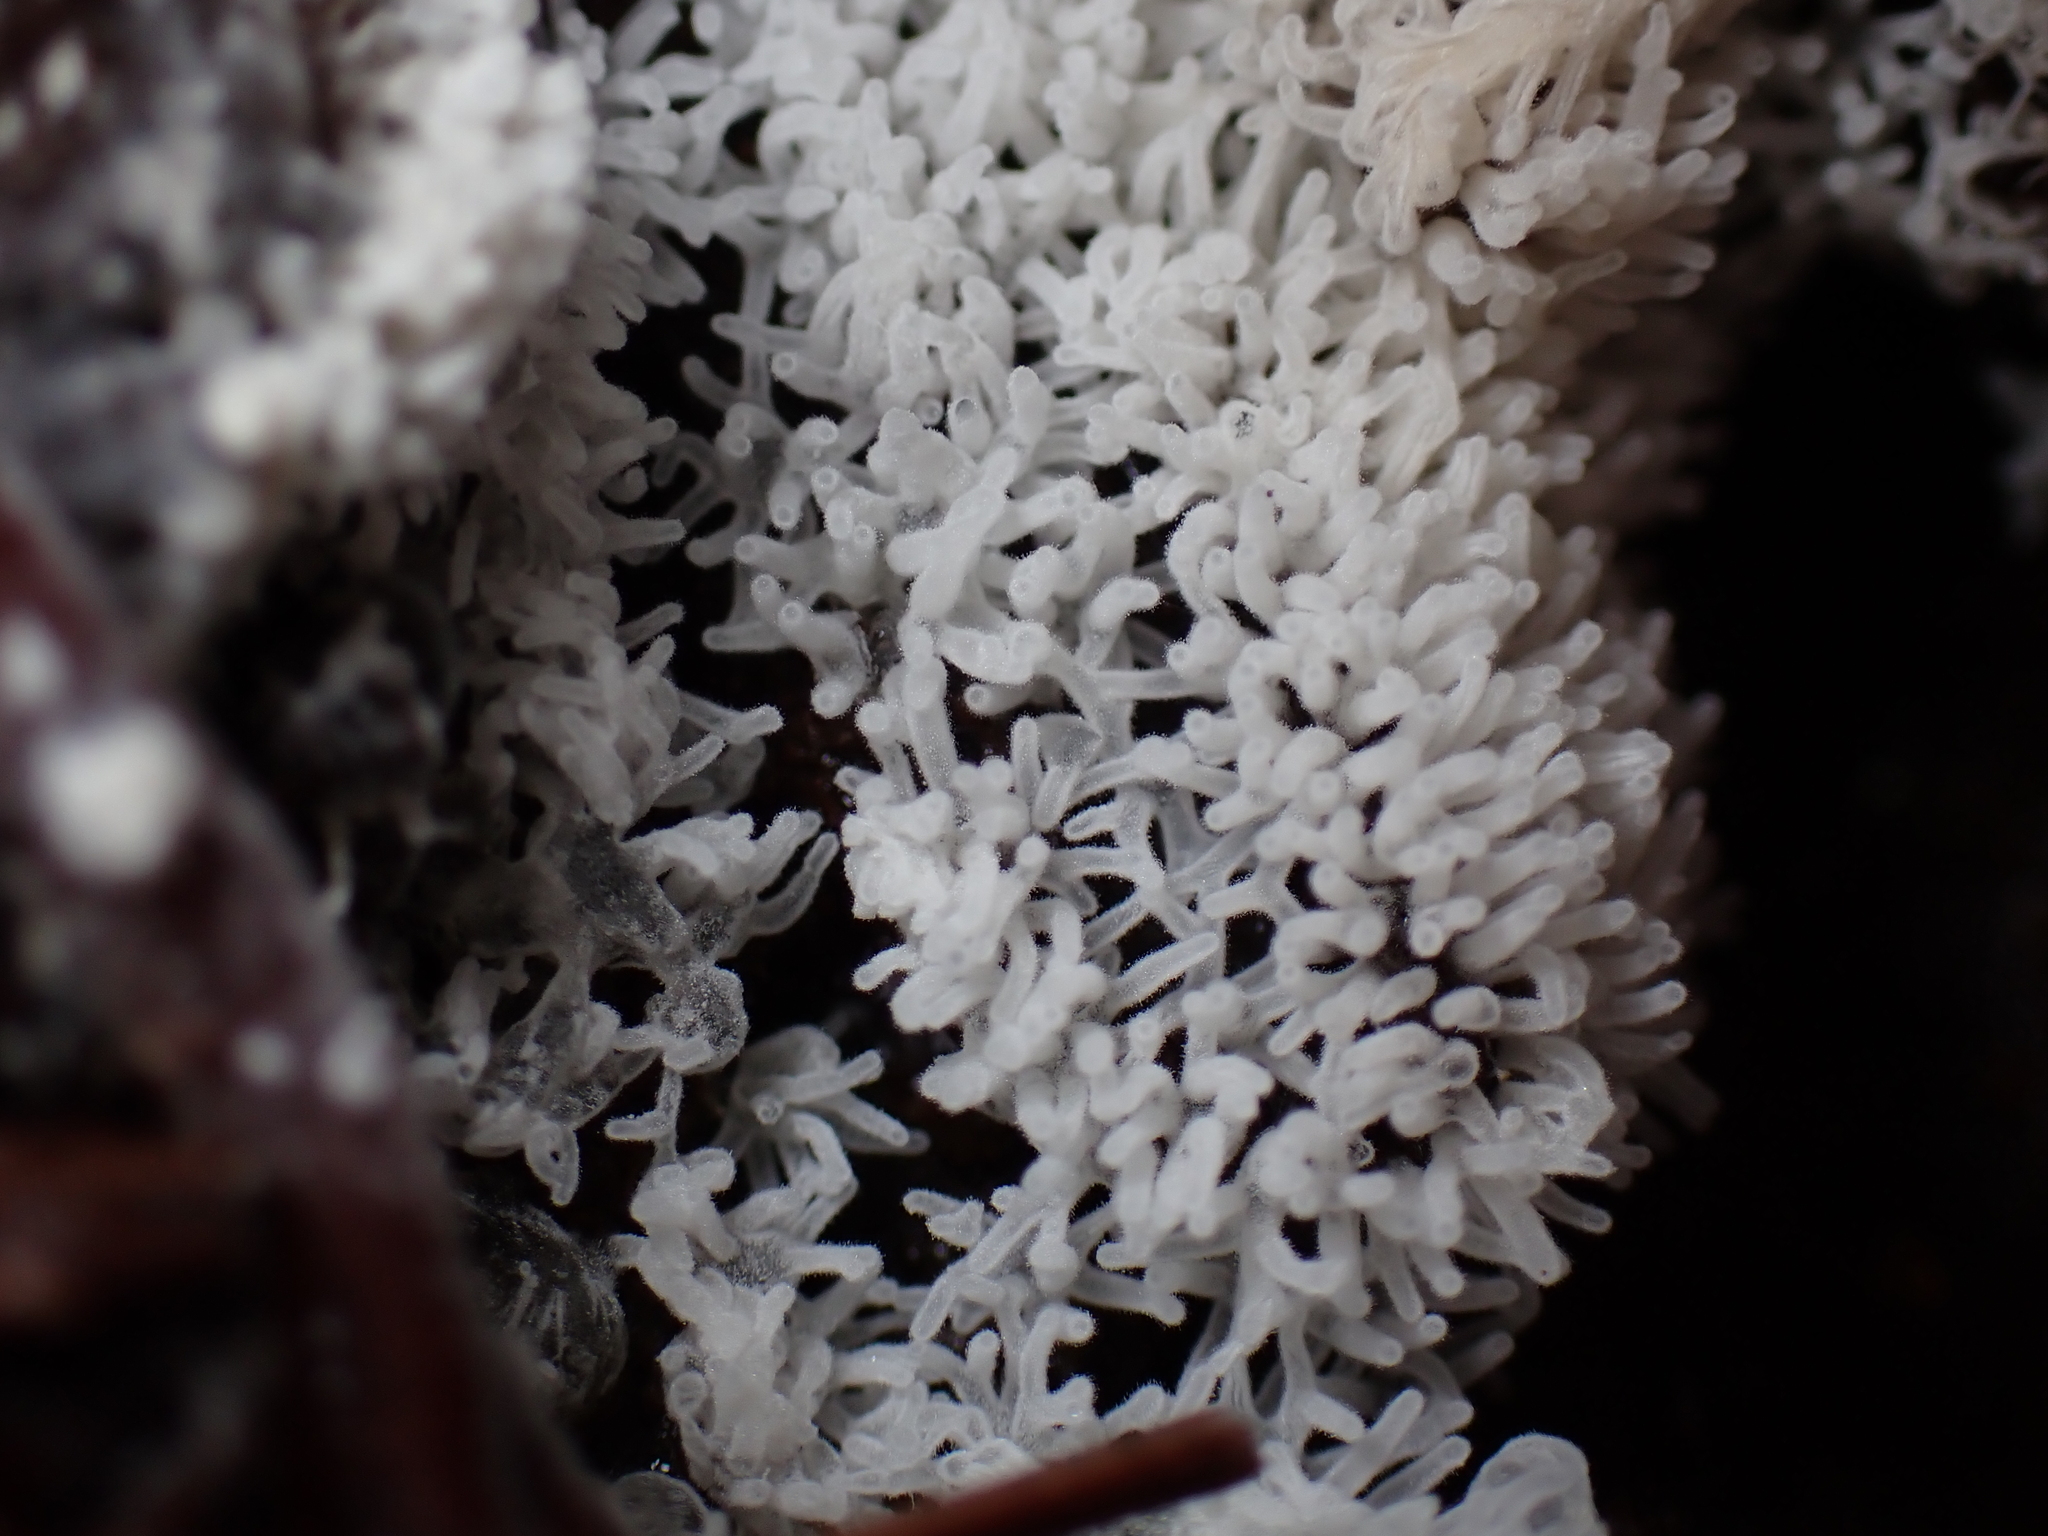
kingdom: Protozoa
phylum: Mycetozoa
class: Protosteliomycetes
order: Ceratiomyxales
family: Ceratiomyxaceae
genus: Ceratiomyxa
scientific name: Ceratiomyxa fruticulosa
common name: Honeycomb coral slime mold
